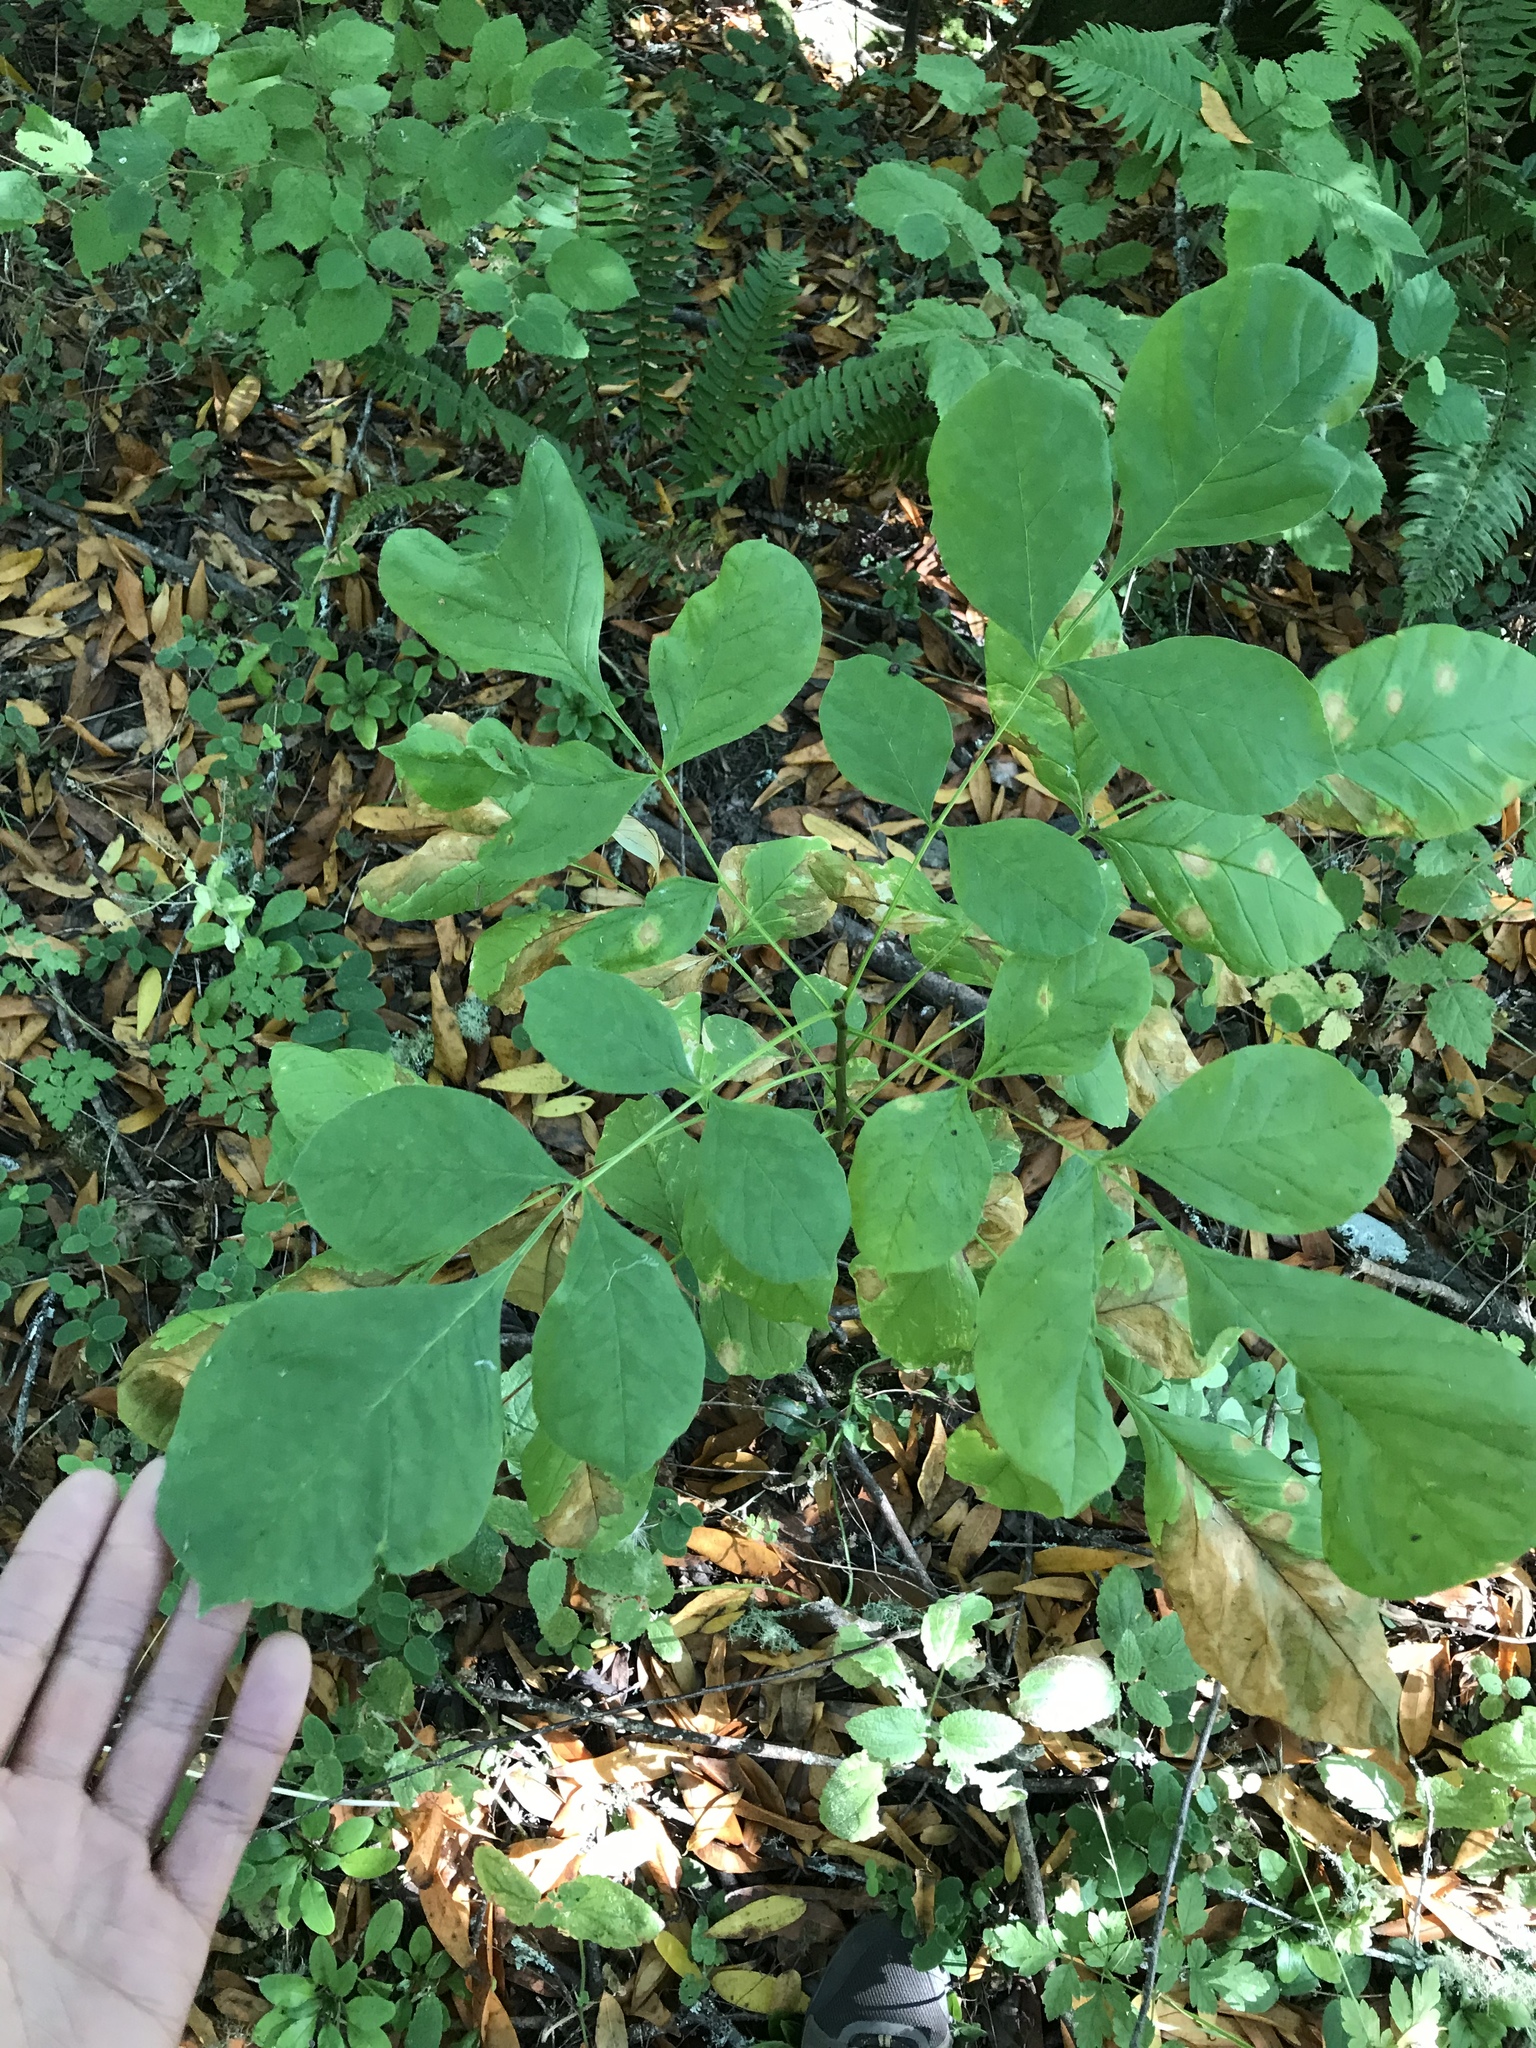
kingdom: Plantae
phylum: Tracheophyta
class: Magnoliopsida
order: Lamiales
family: Oleaceae
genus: Fraxinus
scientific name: Fraxinus latifolia
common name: Oregon ash
